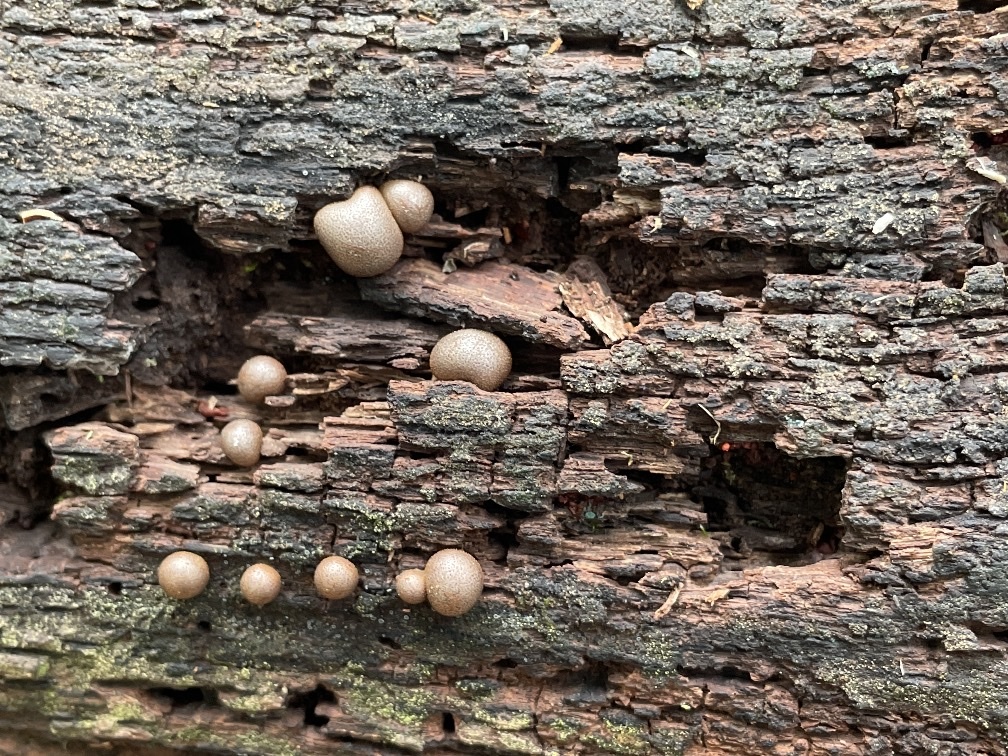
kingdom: Protozoa
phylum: Mycetozoa
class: Myxomycetes
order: Cribrariales
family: Tubiferaceae
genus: Lycogala
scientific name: Lycogala epidendrum
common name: Wolf's milk
